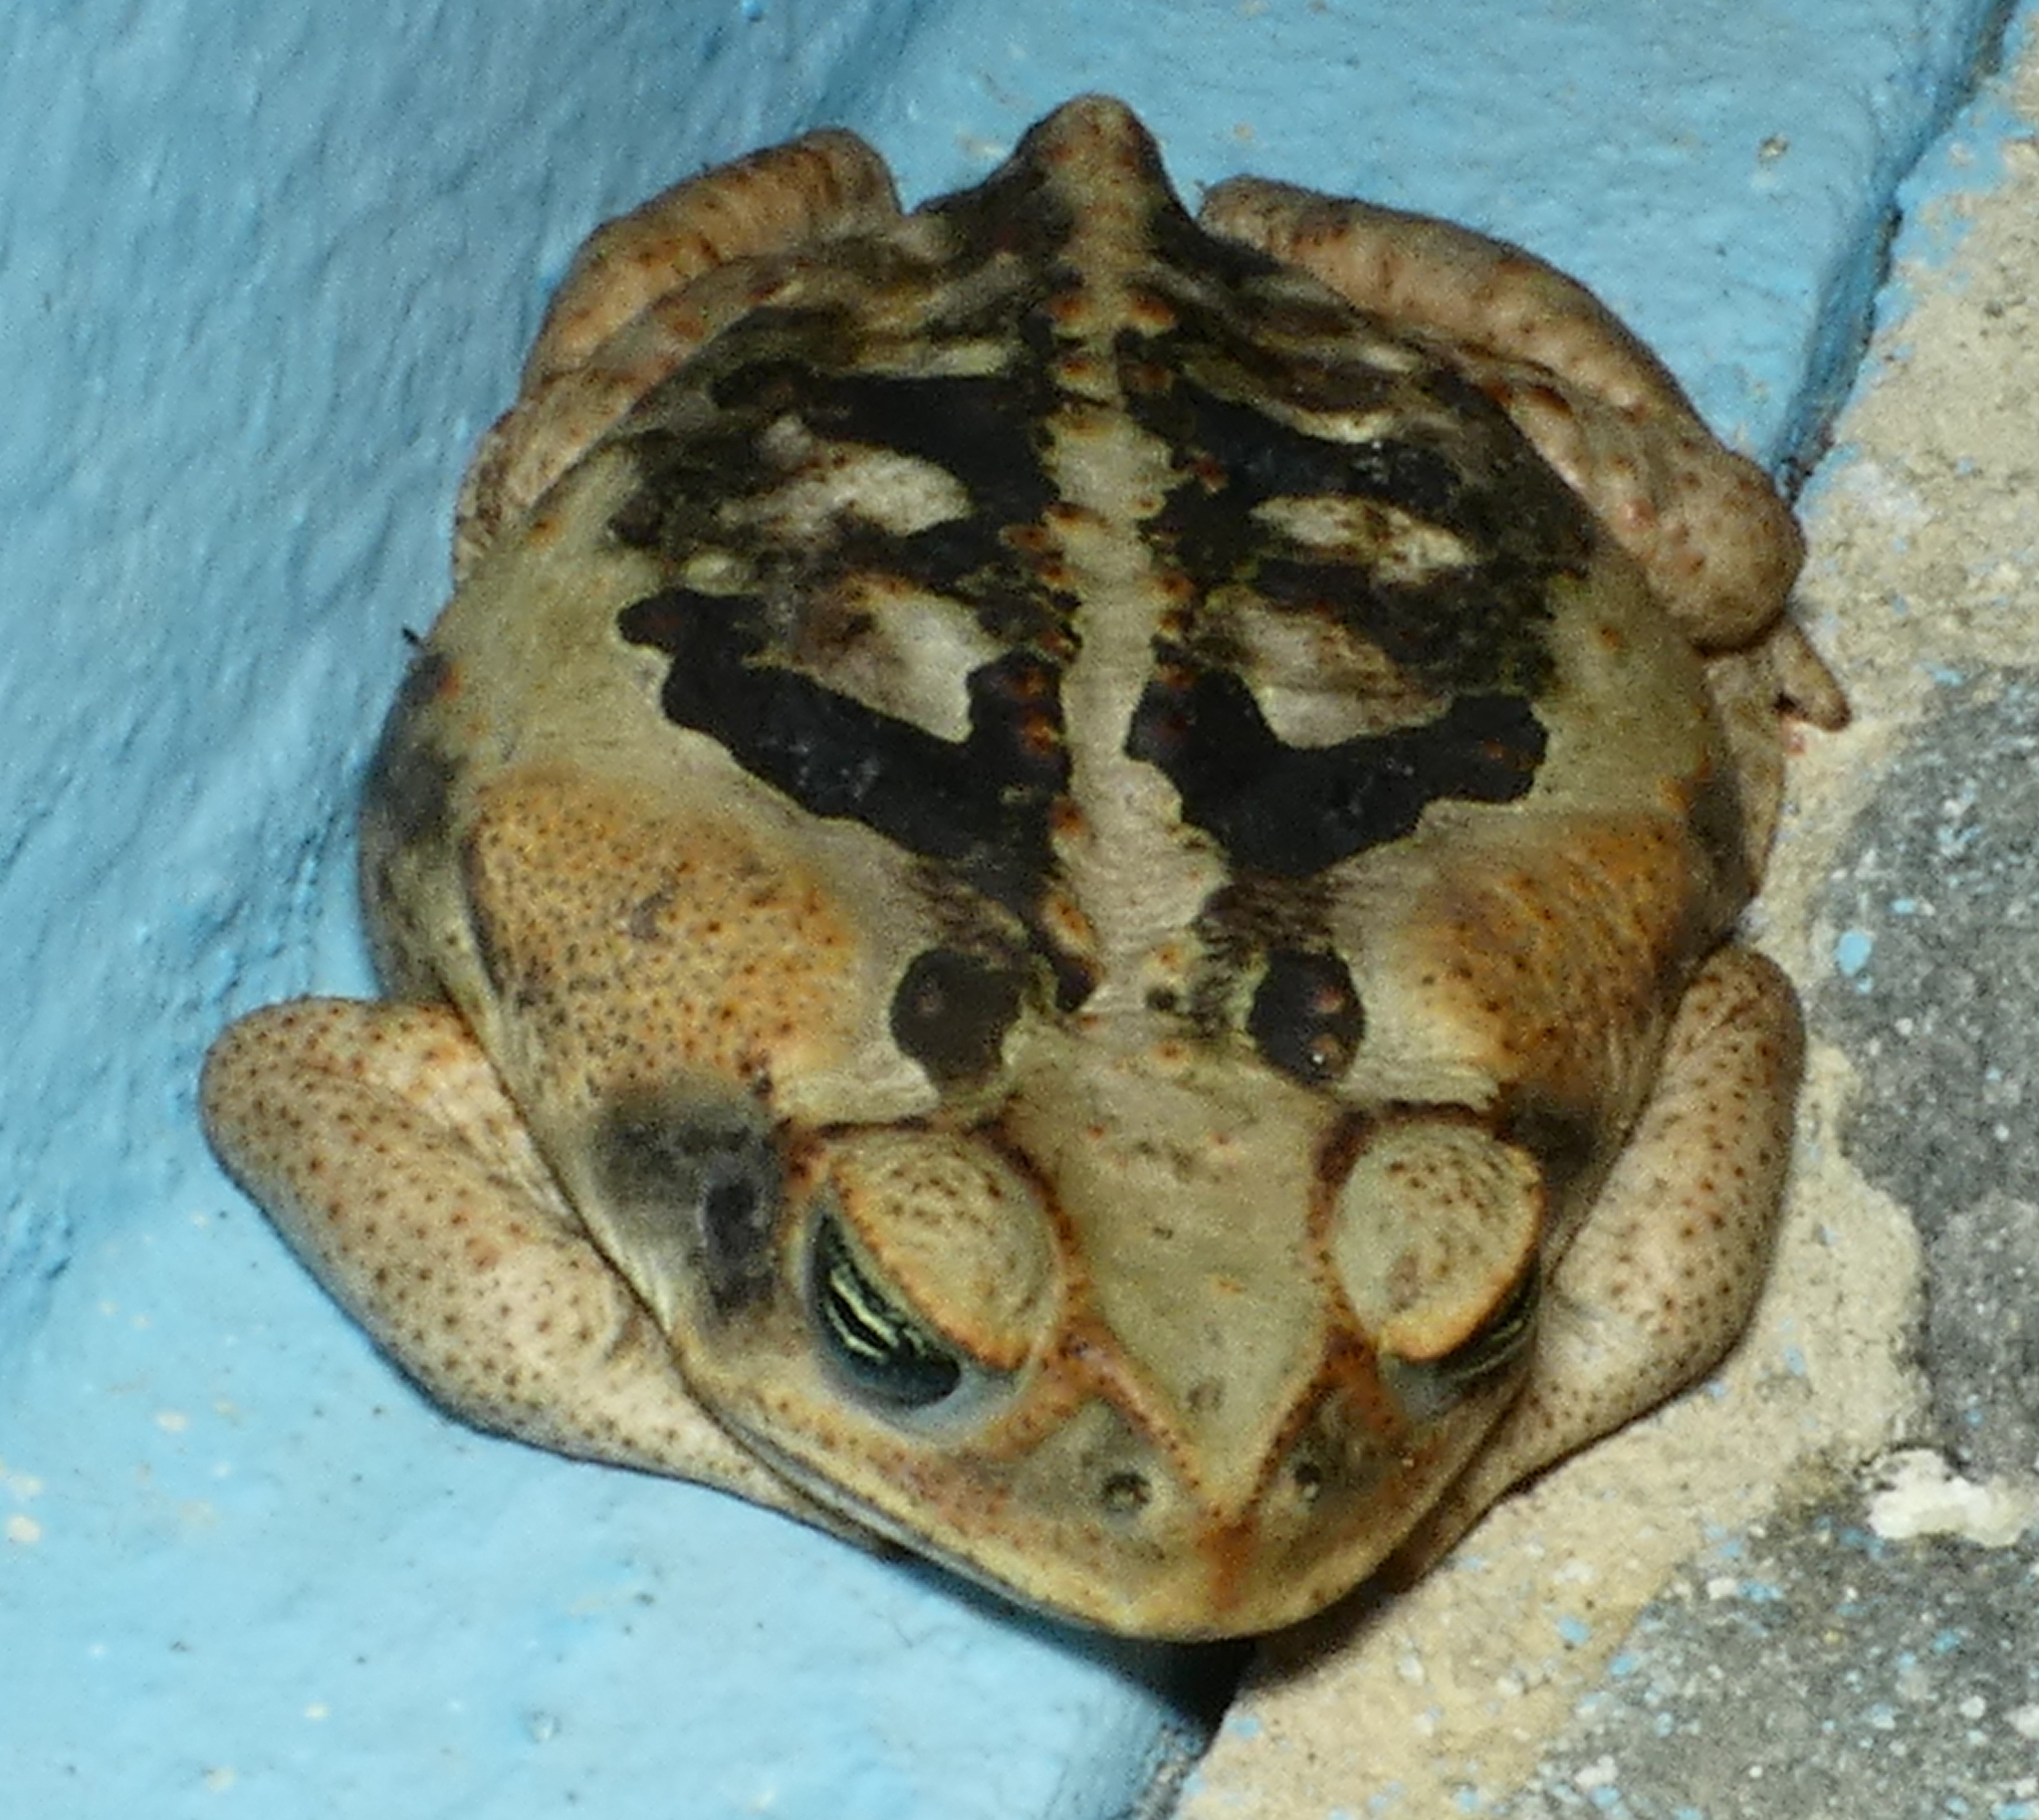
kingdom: Animalia
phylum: Chordata
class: Amphibia
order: Anura
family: Bufonidae
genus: Rhinella
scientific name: Rhinella diptycha
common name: Cope's toad
